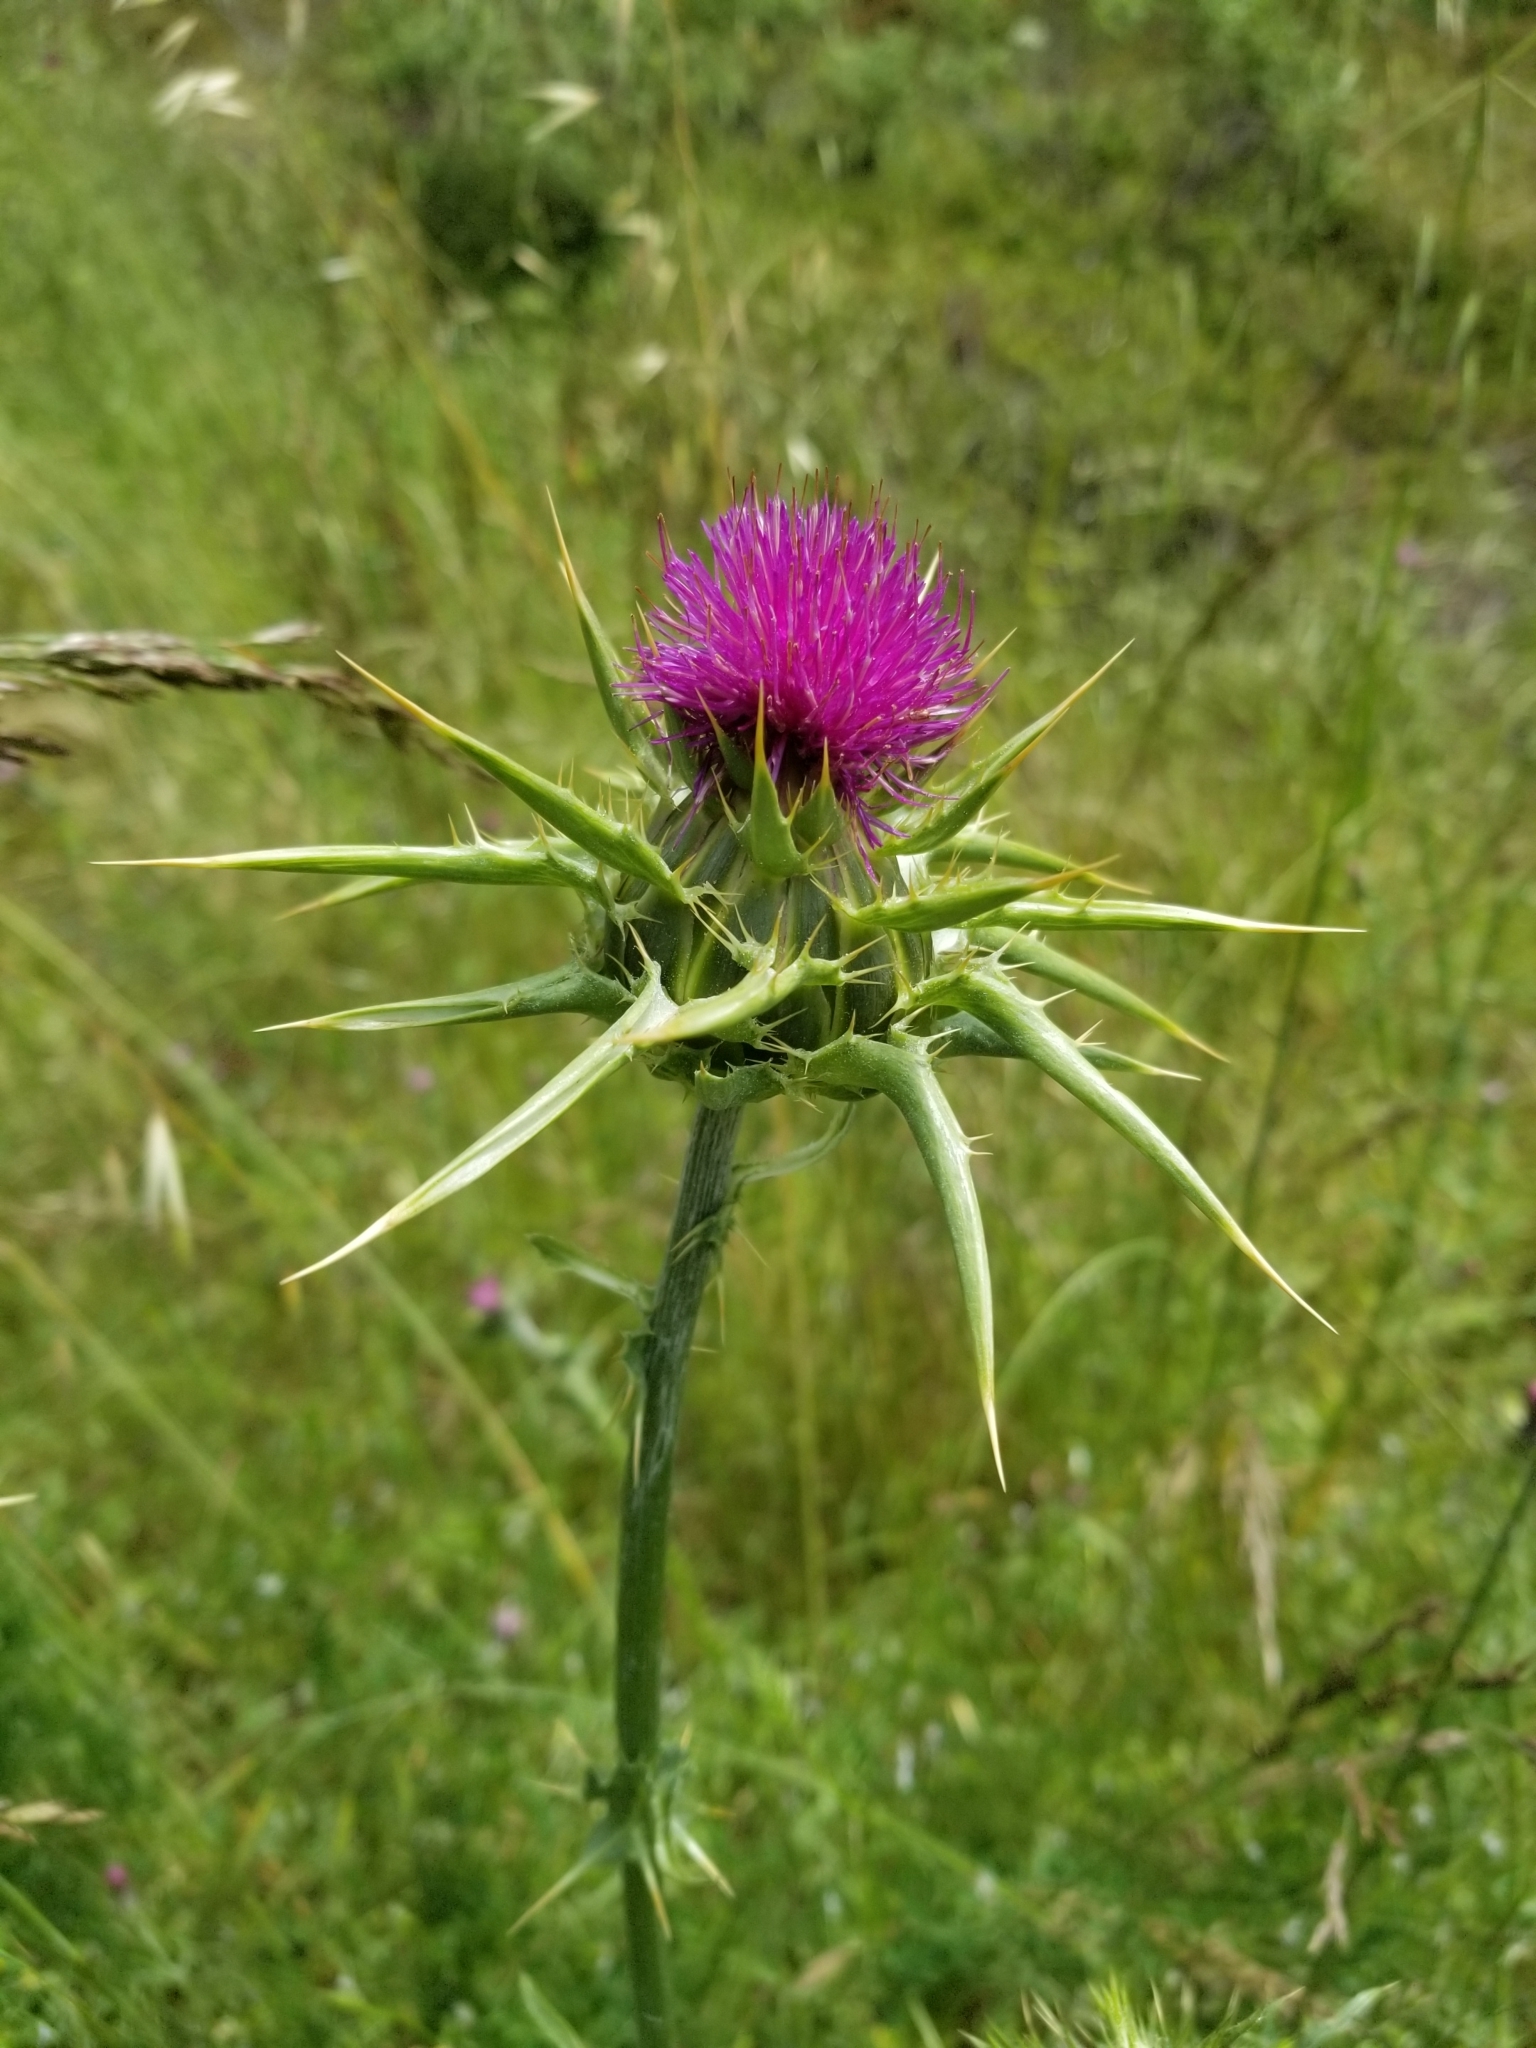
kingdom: Plantae
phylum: Tracheophyta
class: Magnoliopsida
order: Asterales
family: Asteraceae
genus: Silybum
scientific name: Silybum marianum
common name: Milk thistle
